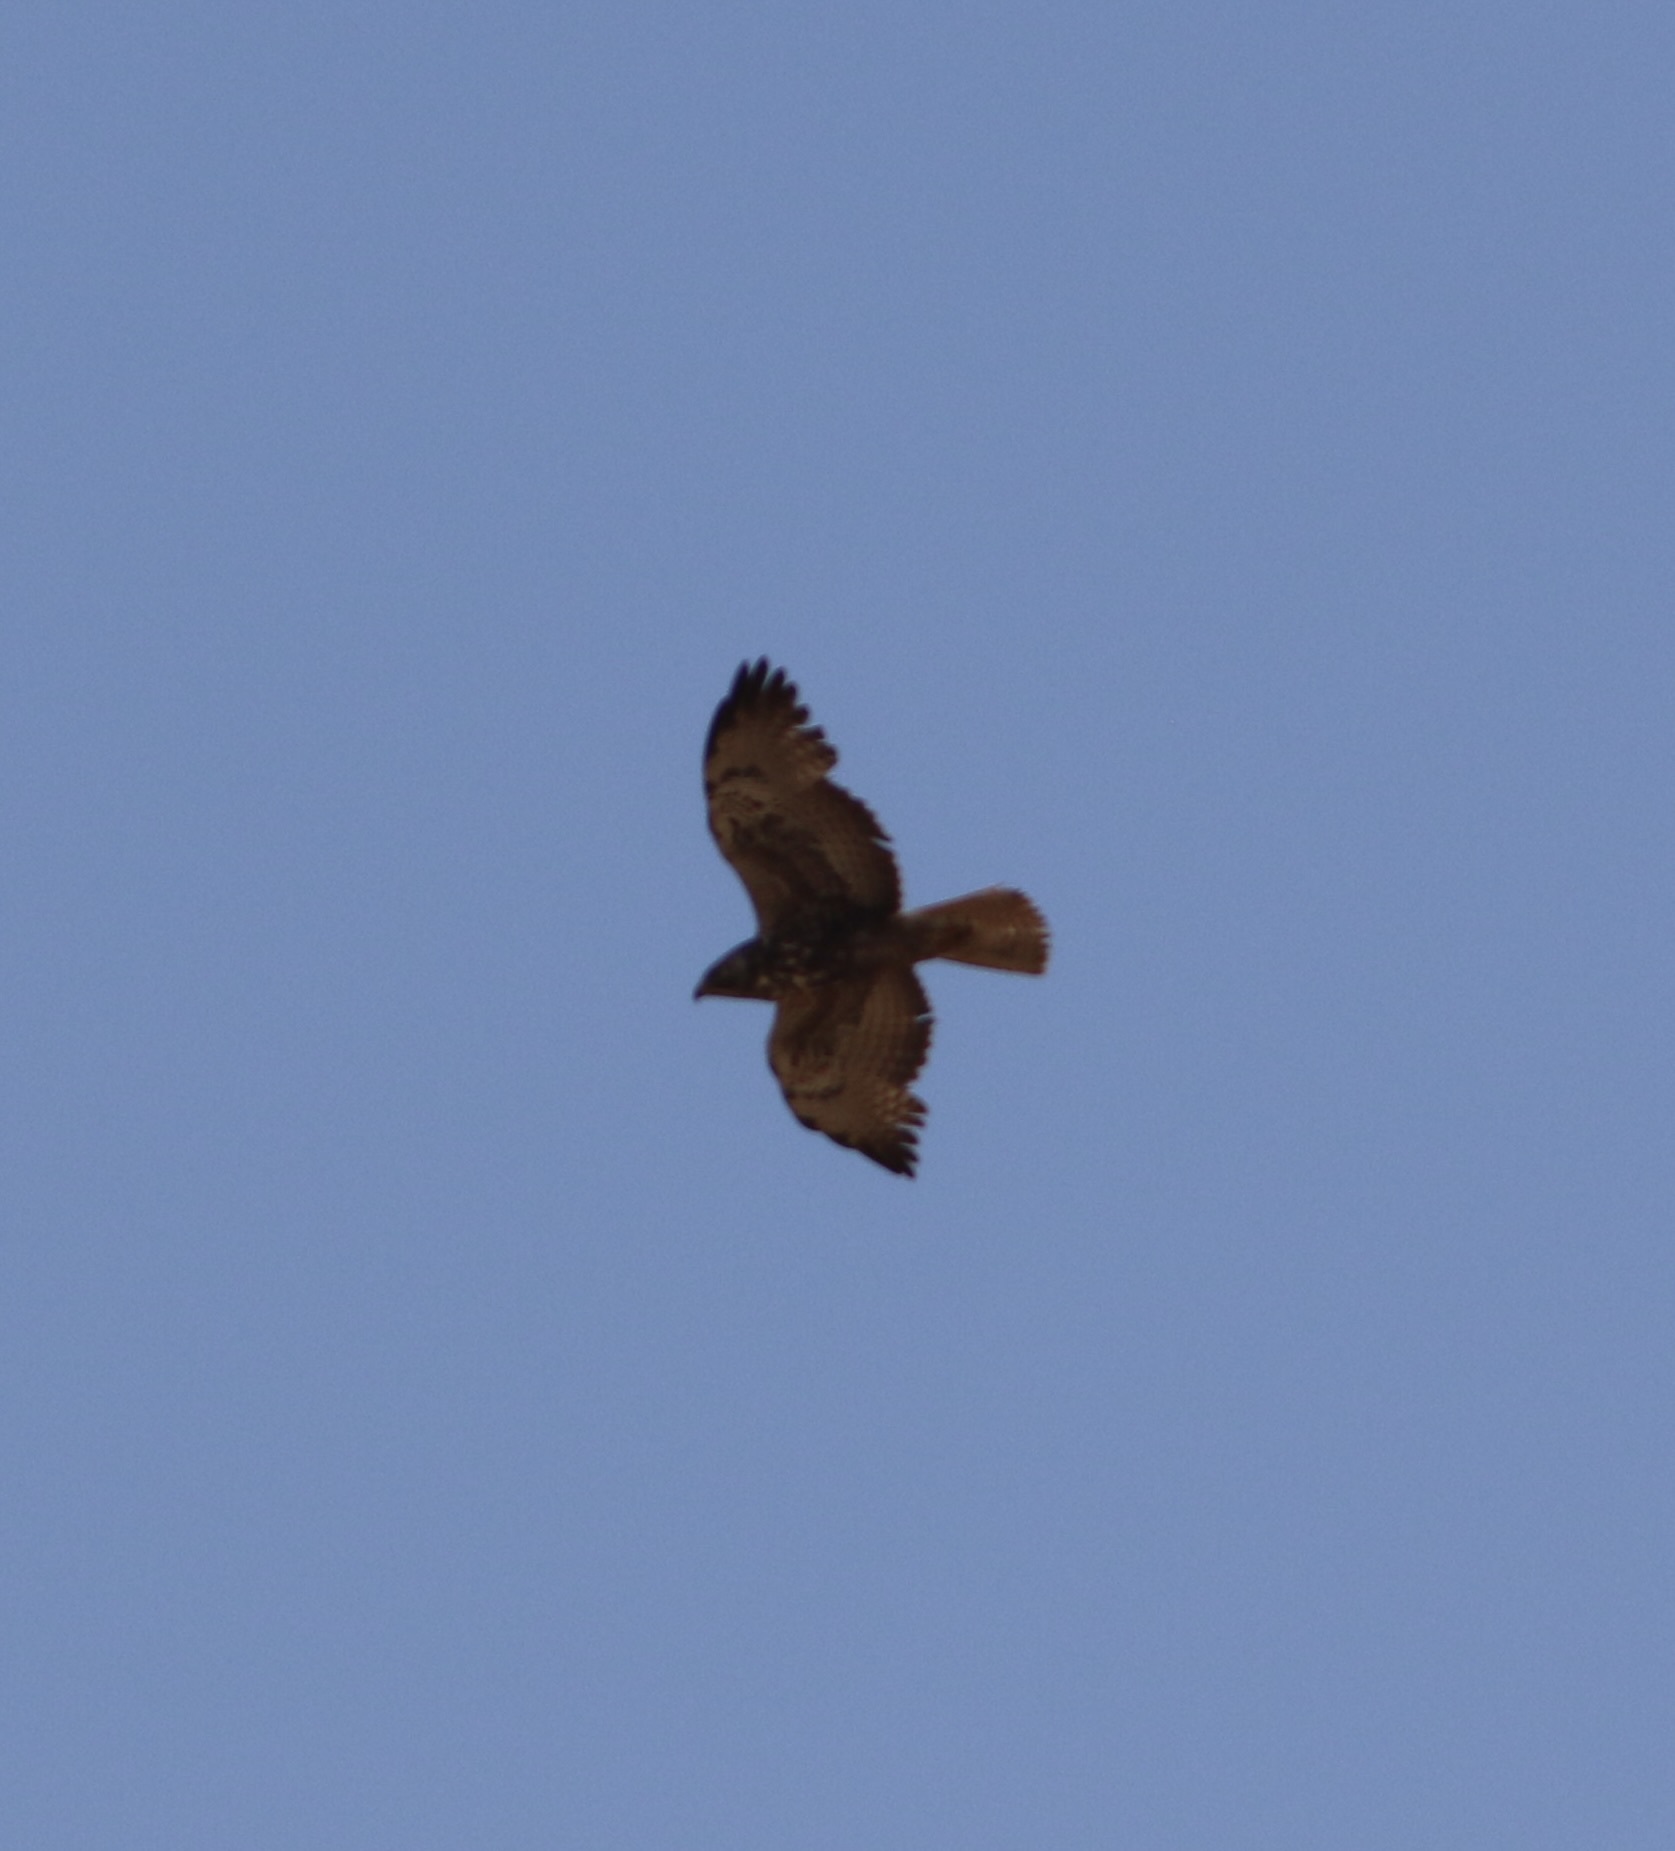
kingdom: Animalia
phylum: Chordata
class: Aves
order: Accipitriformes
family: Accipitridae
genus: Buteo
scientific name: Buteo swainsoni
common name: Swainson's hawk
